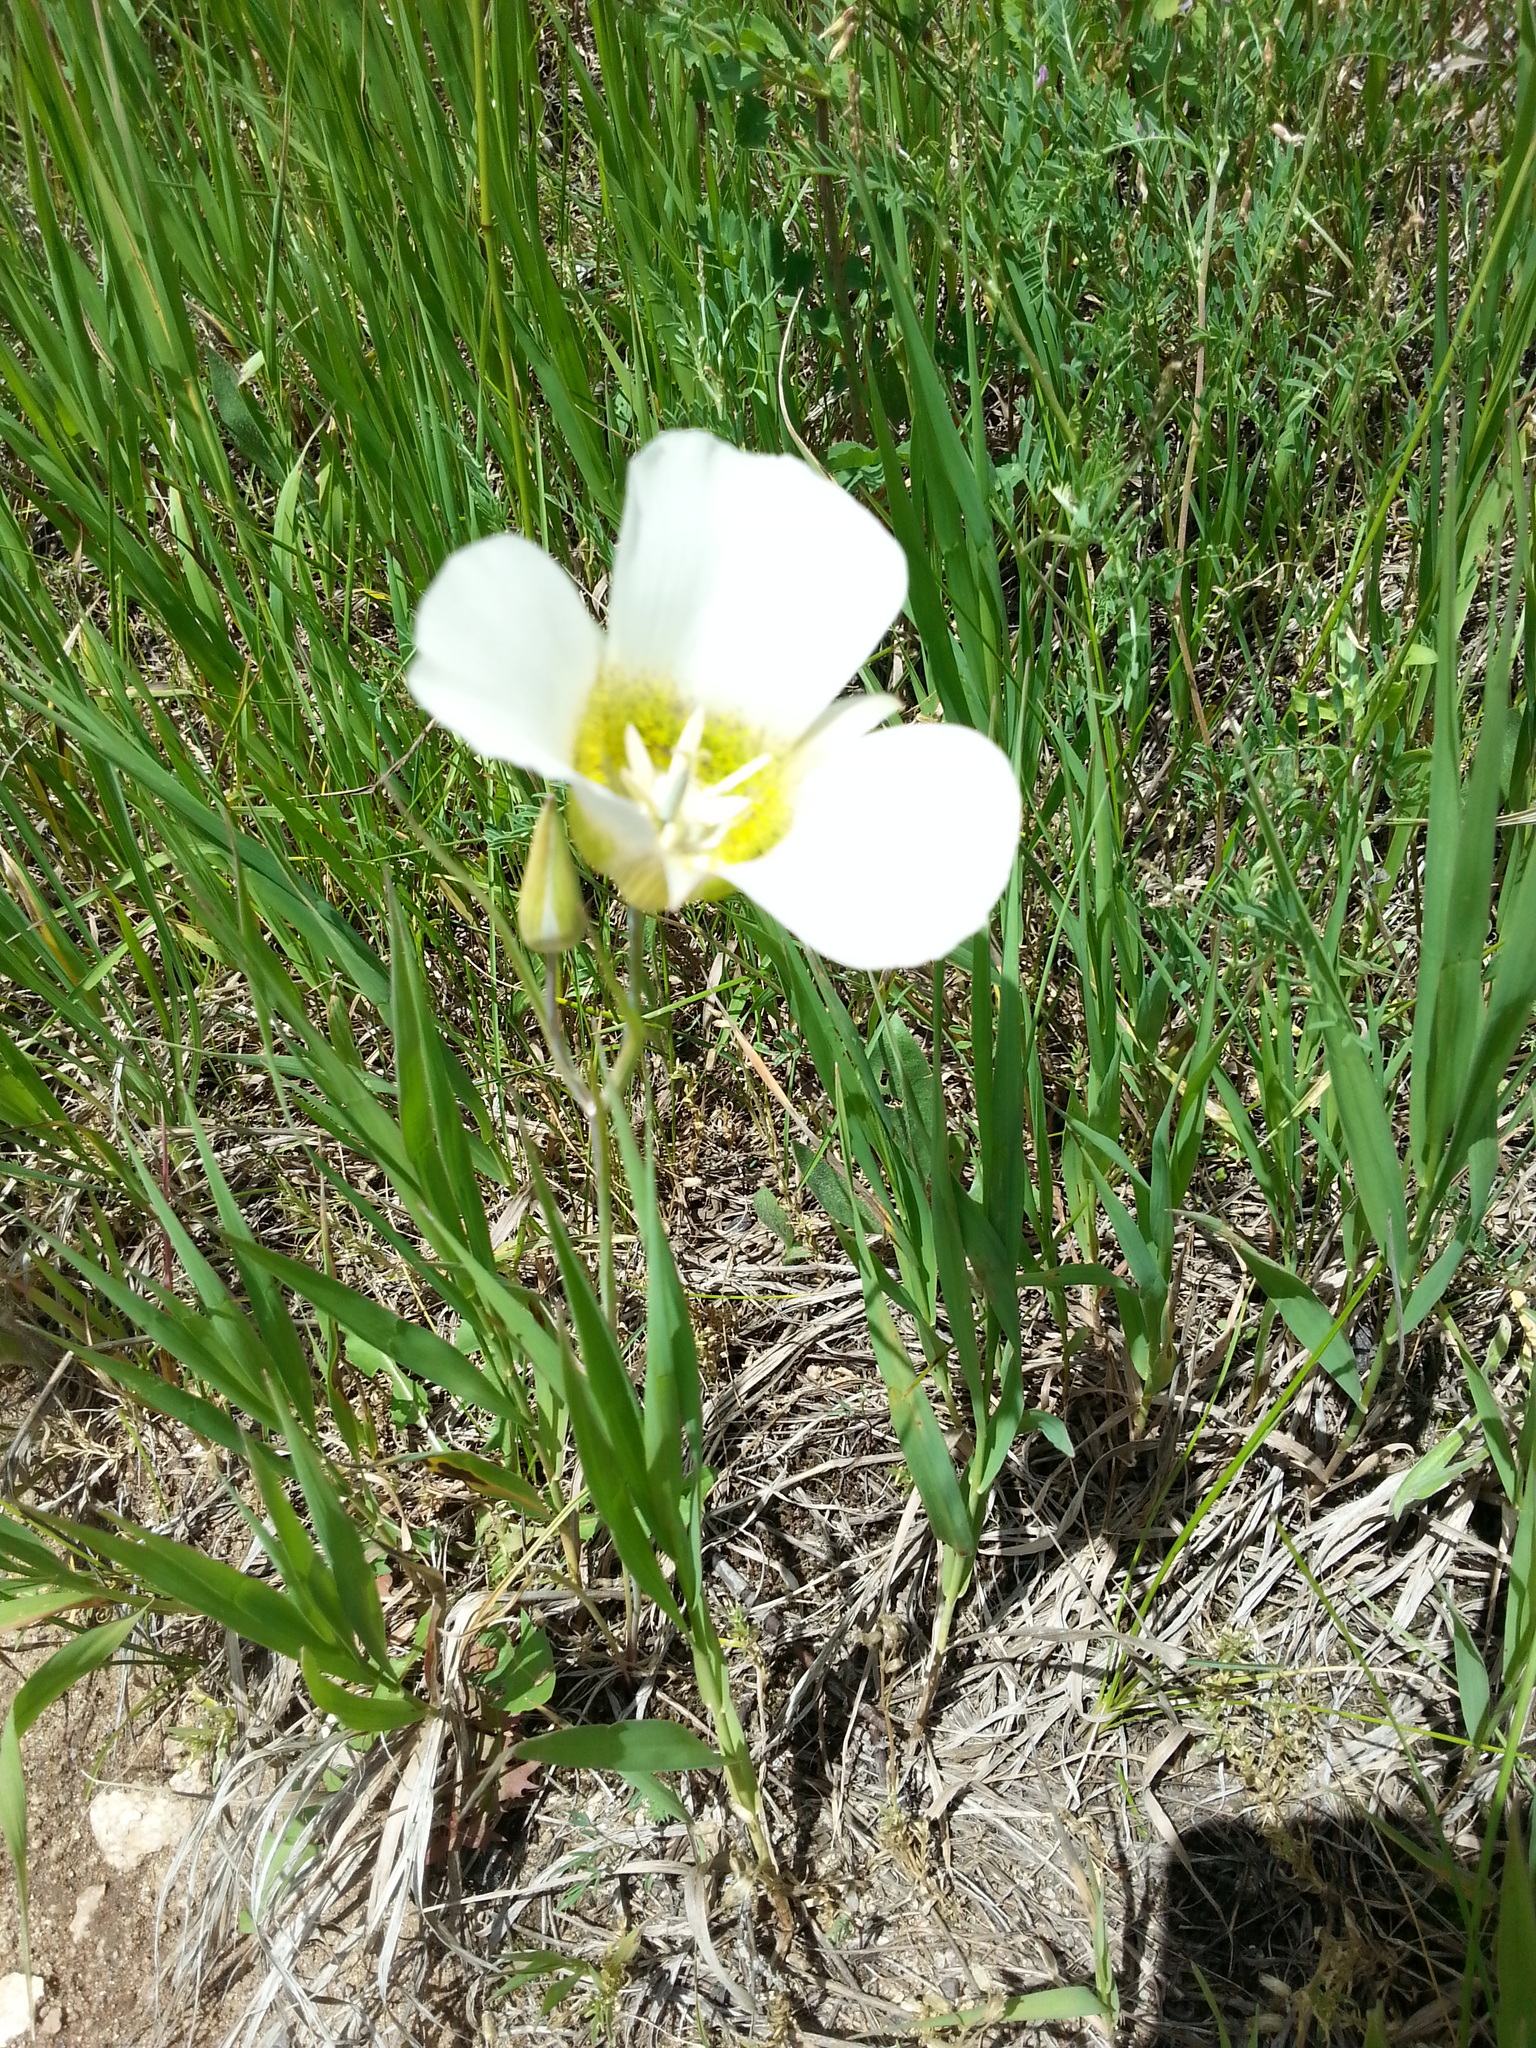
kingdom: Plantae
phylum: Tracheophyta
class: Liliopsida
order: Liliales
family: Liliaceae
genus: Calochortus
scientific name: Calochortus gunnisonii
